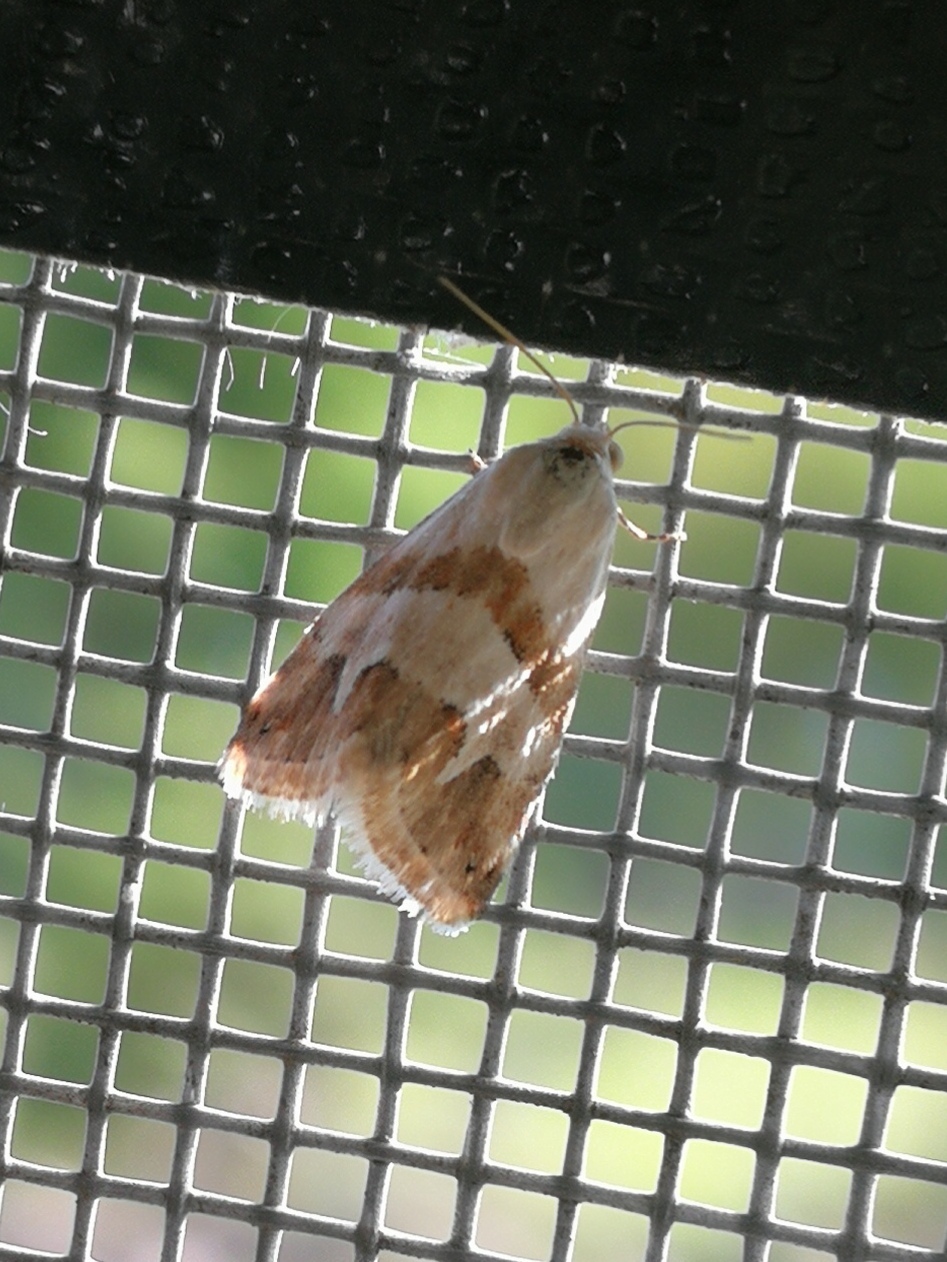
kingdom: Animalia
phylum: Arthropoda
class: Insecta
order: Lepidoptera
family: Noctuidae
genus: Eublemma
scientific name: Eublemma candidana
